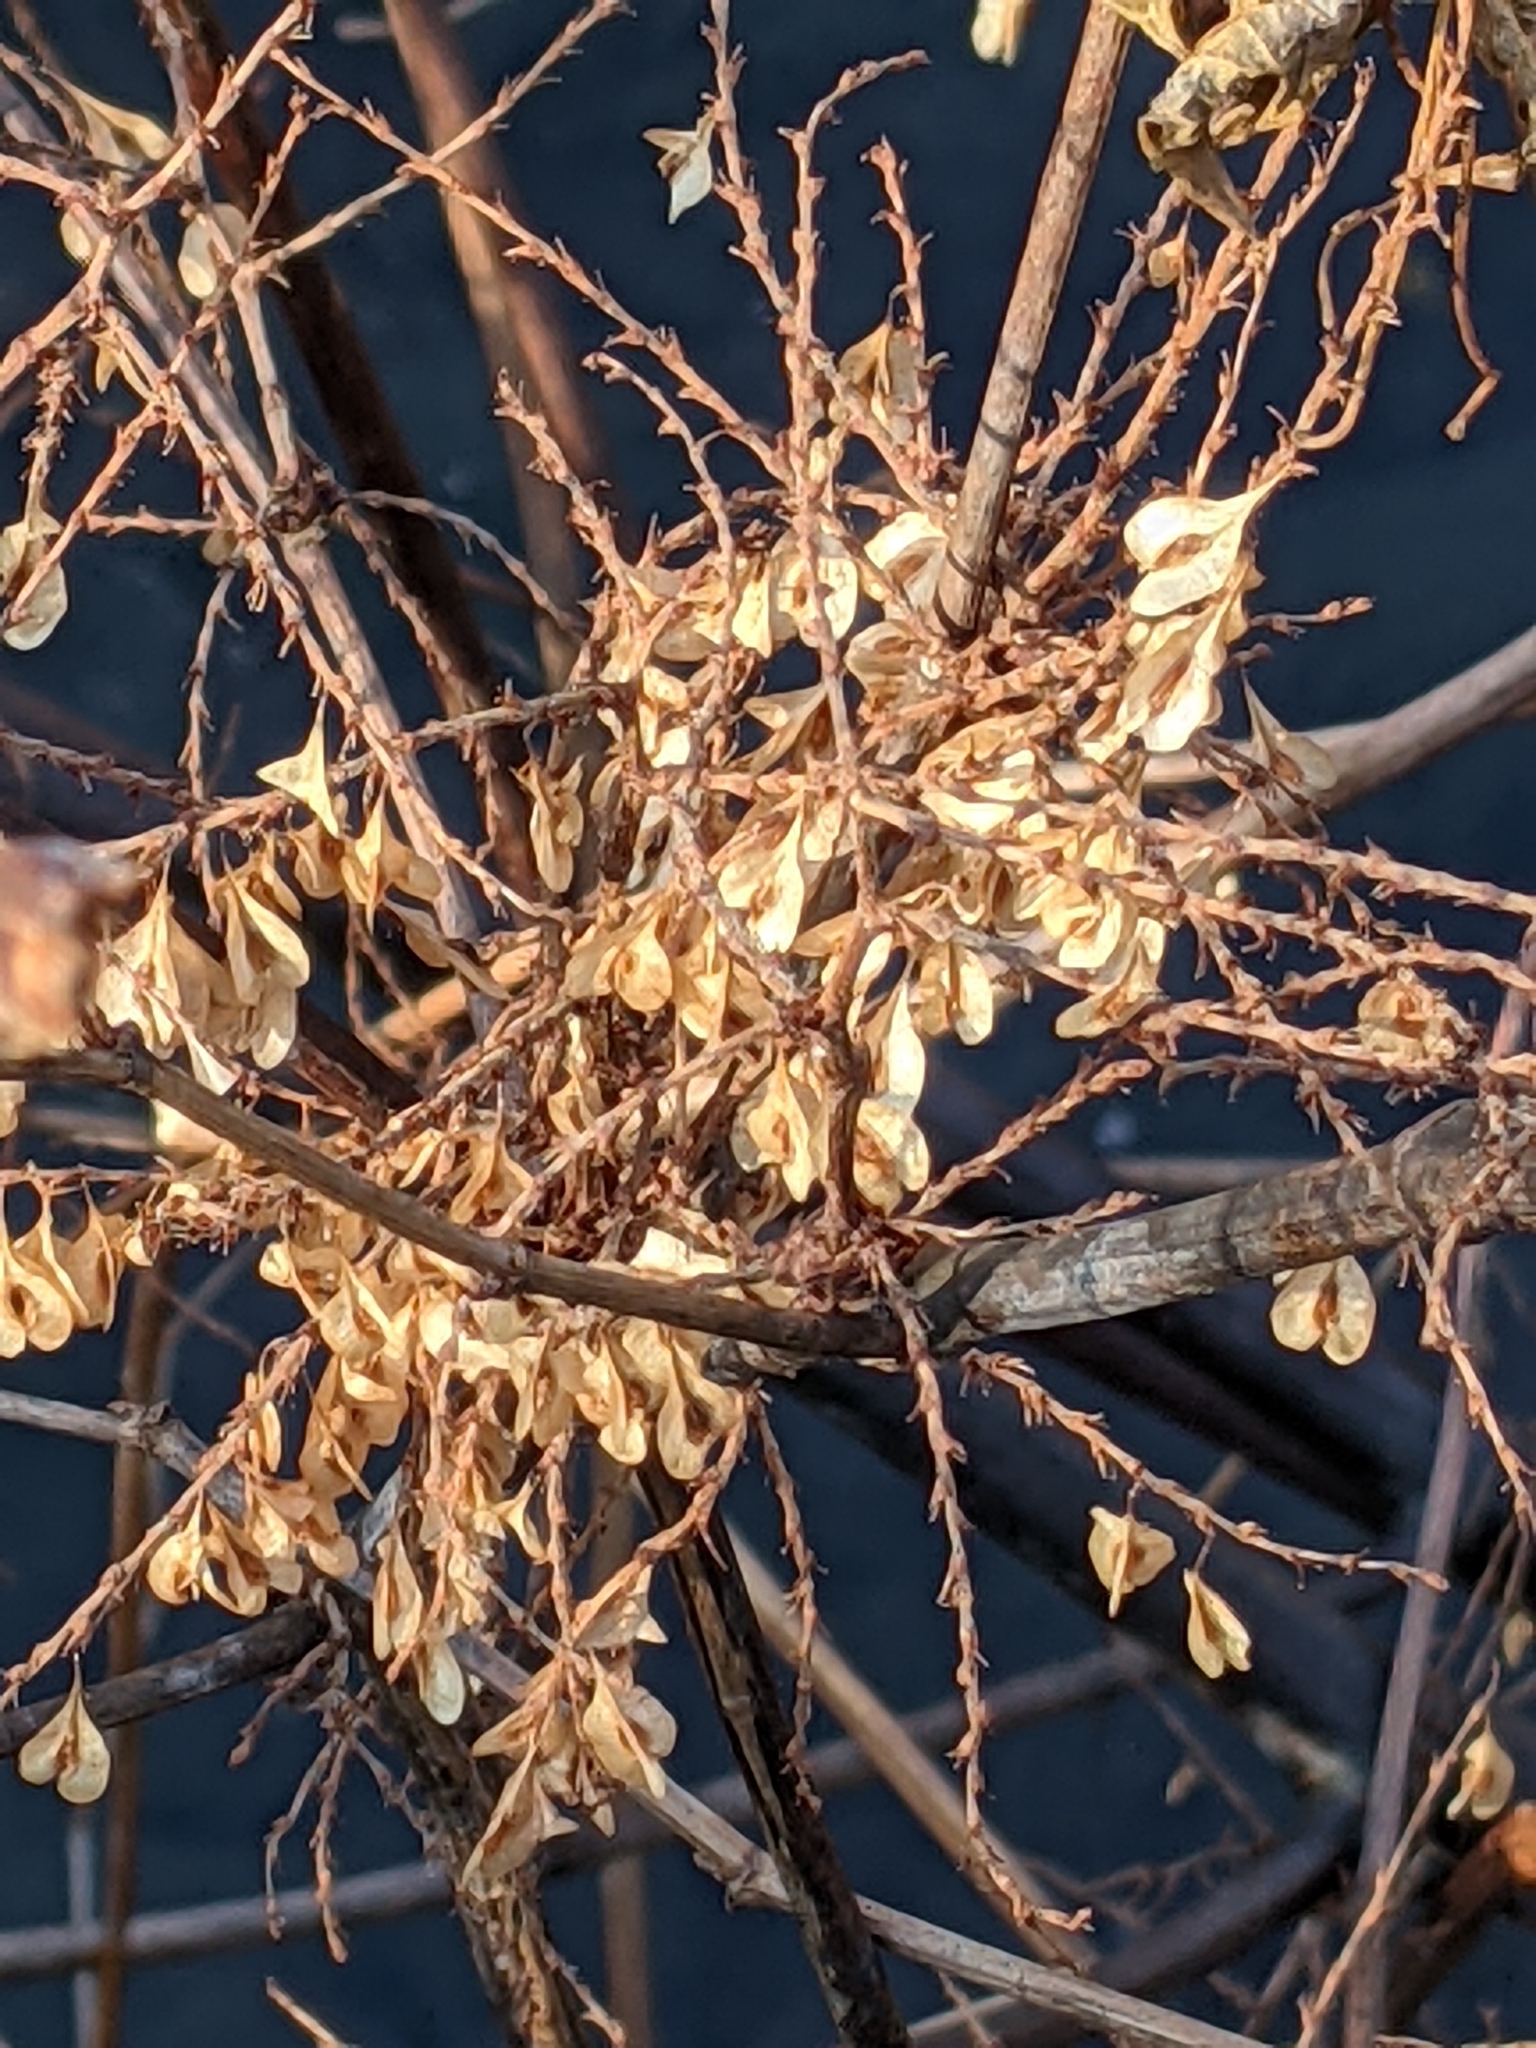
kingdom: Plantae
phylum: Tracheophyta
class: Magnoliopsida
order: Caryophyllales
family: Polygonaceae
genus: Reynoutria
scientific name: Reynoutria japonica
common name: Japanese knotweed
